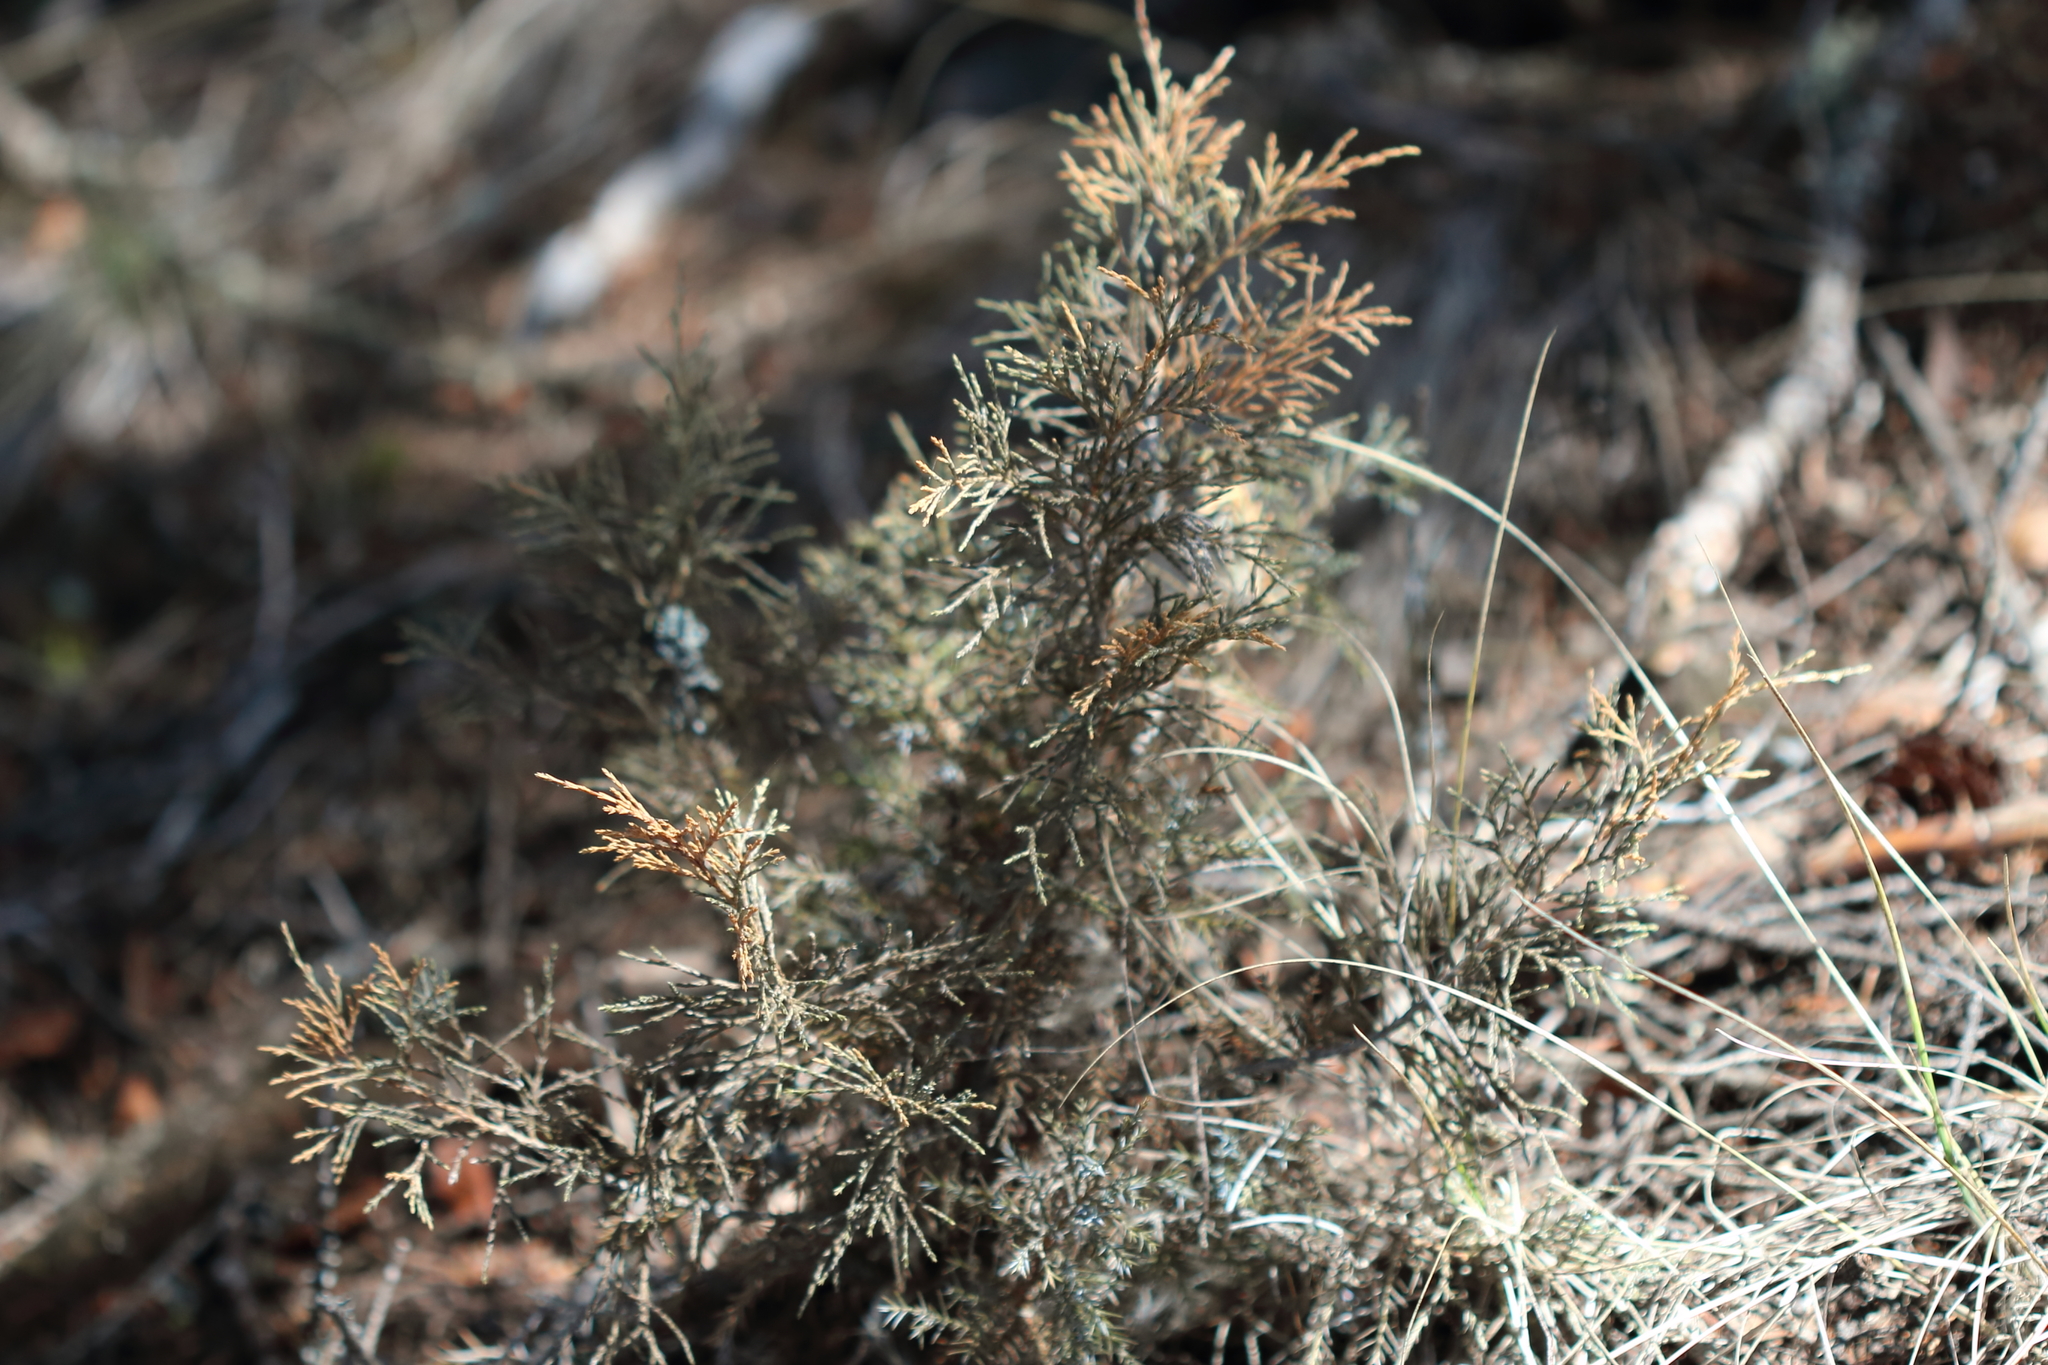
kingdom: Plantae
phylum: Tracheophyta
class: Pinopsida
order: Pinales
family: Cupressaceae
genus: Juniperus
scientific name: Juniperus scopulorum
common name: Rocky mountain juniper
